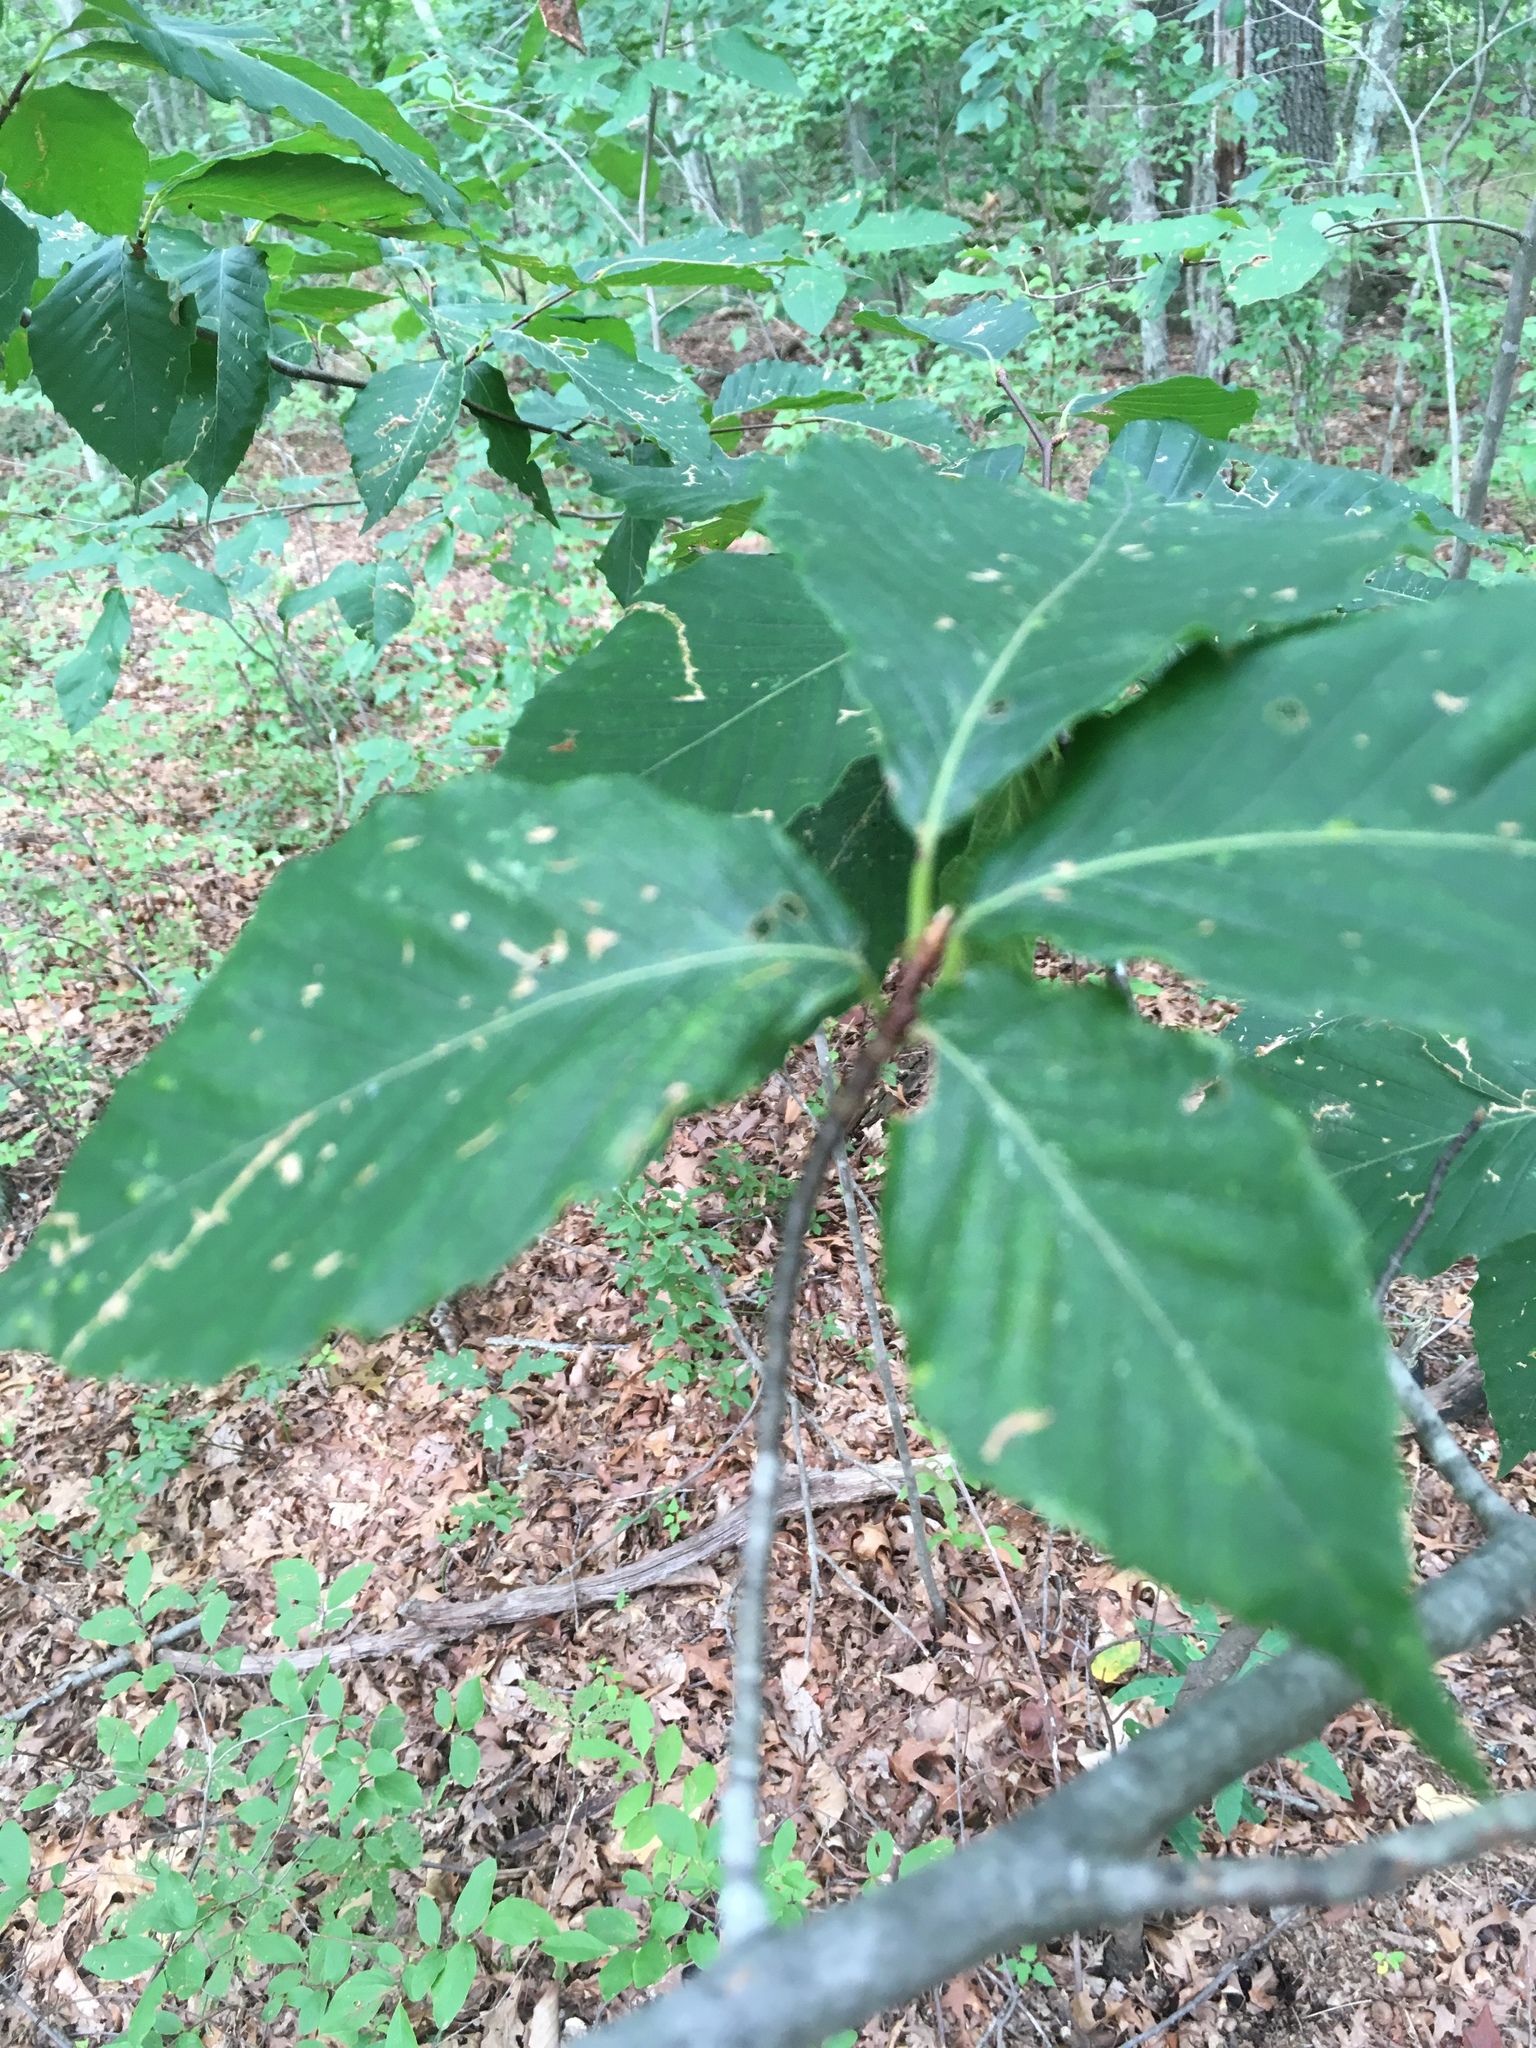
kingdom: Plantae
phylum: Tracheophyta
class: Magnoliopsida
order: Fagales
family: Fagaceae
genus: Fagus
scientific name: Fagus grandifolia
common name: American beech
